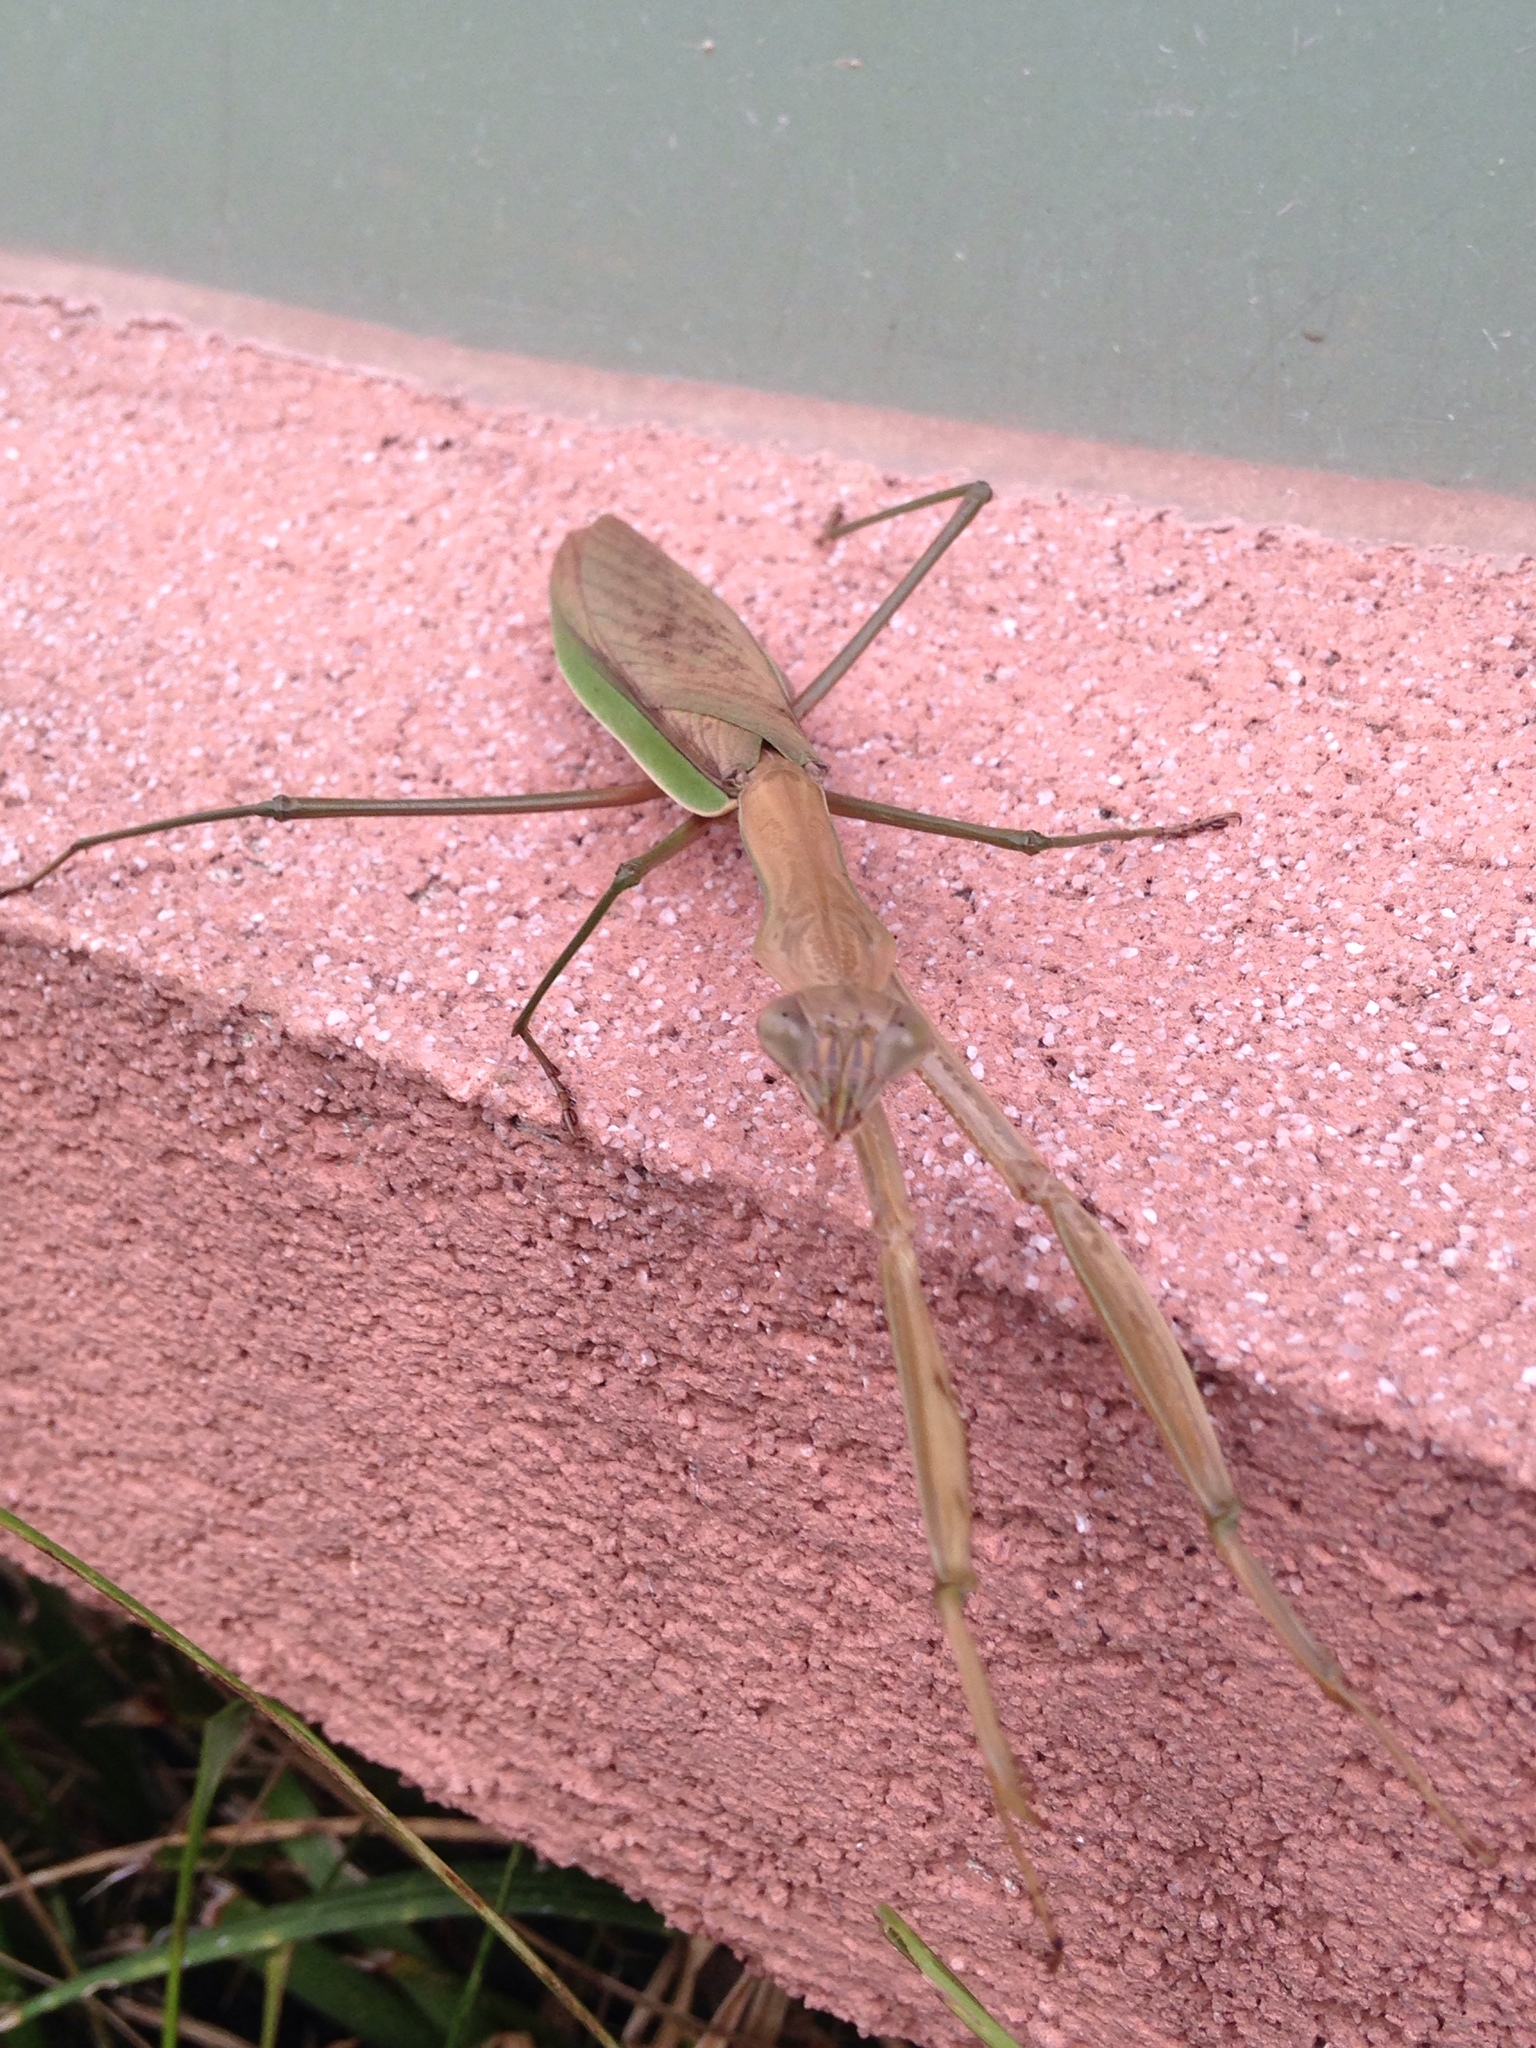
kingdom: Animalia
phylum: Arthropoda
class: Insecta
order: Mantodea
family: Mantidae
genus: Tenodera
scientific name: Tenodera sinensis
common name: Chinese mantis
